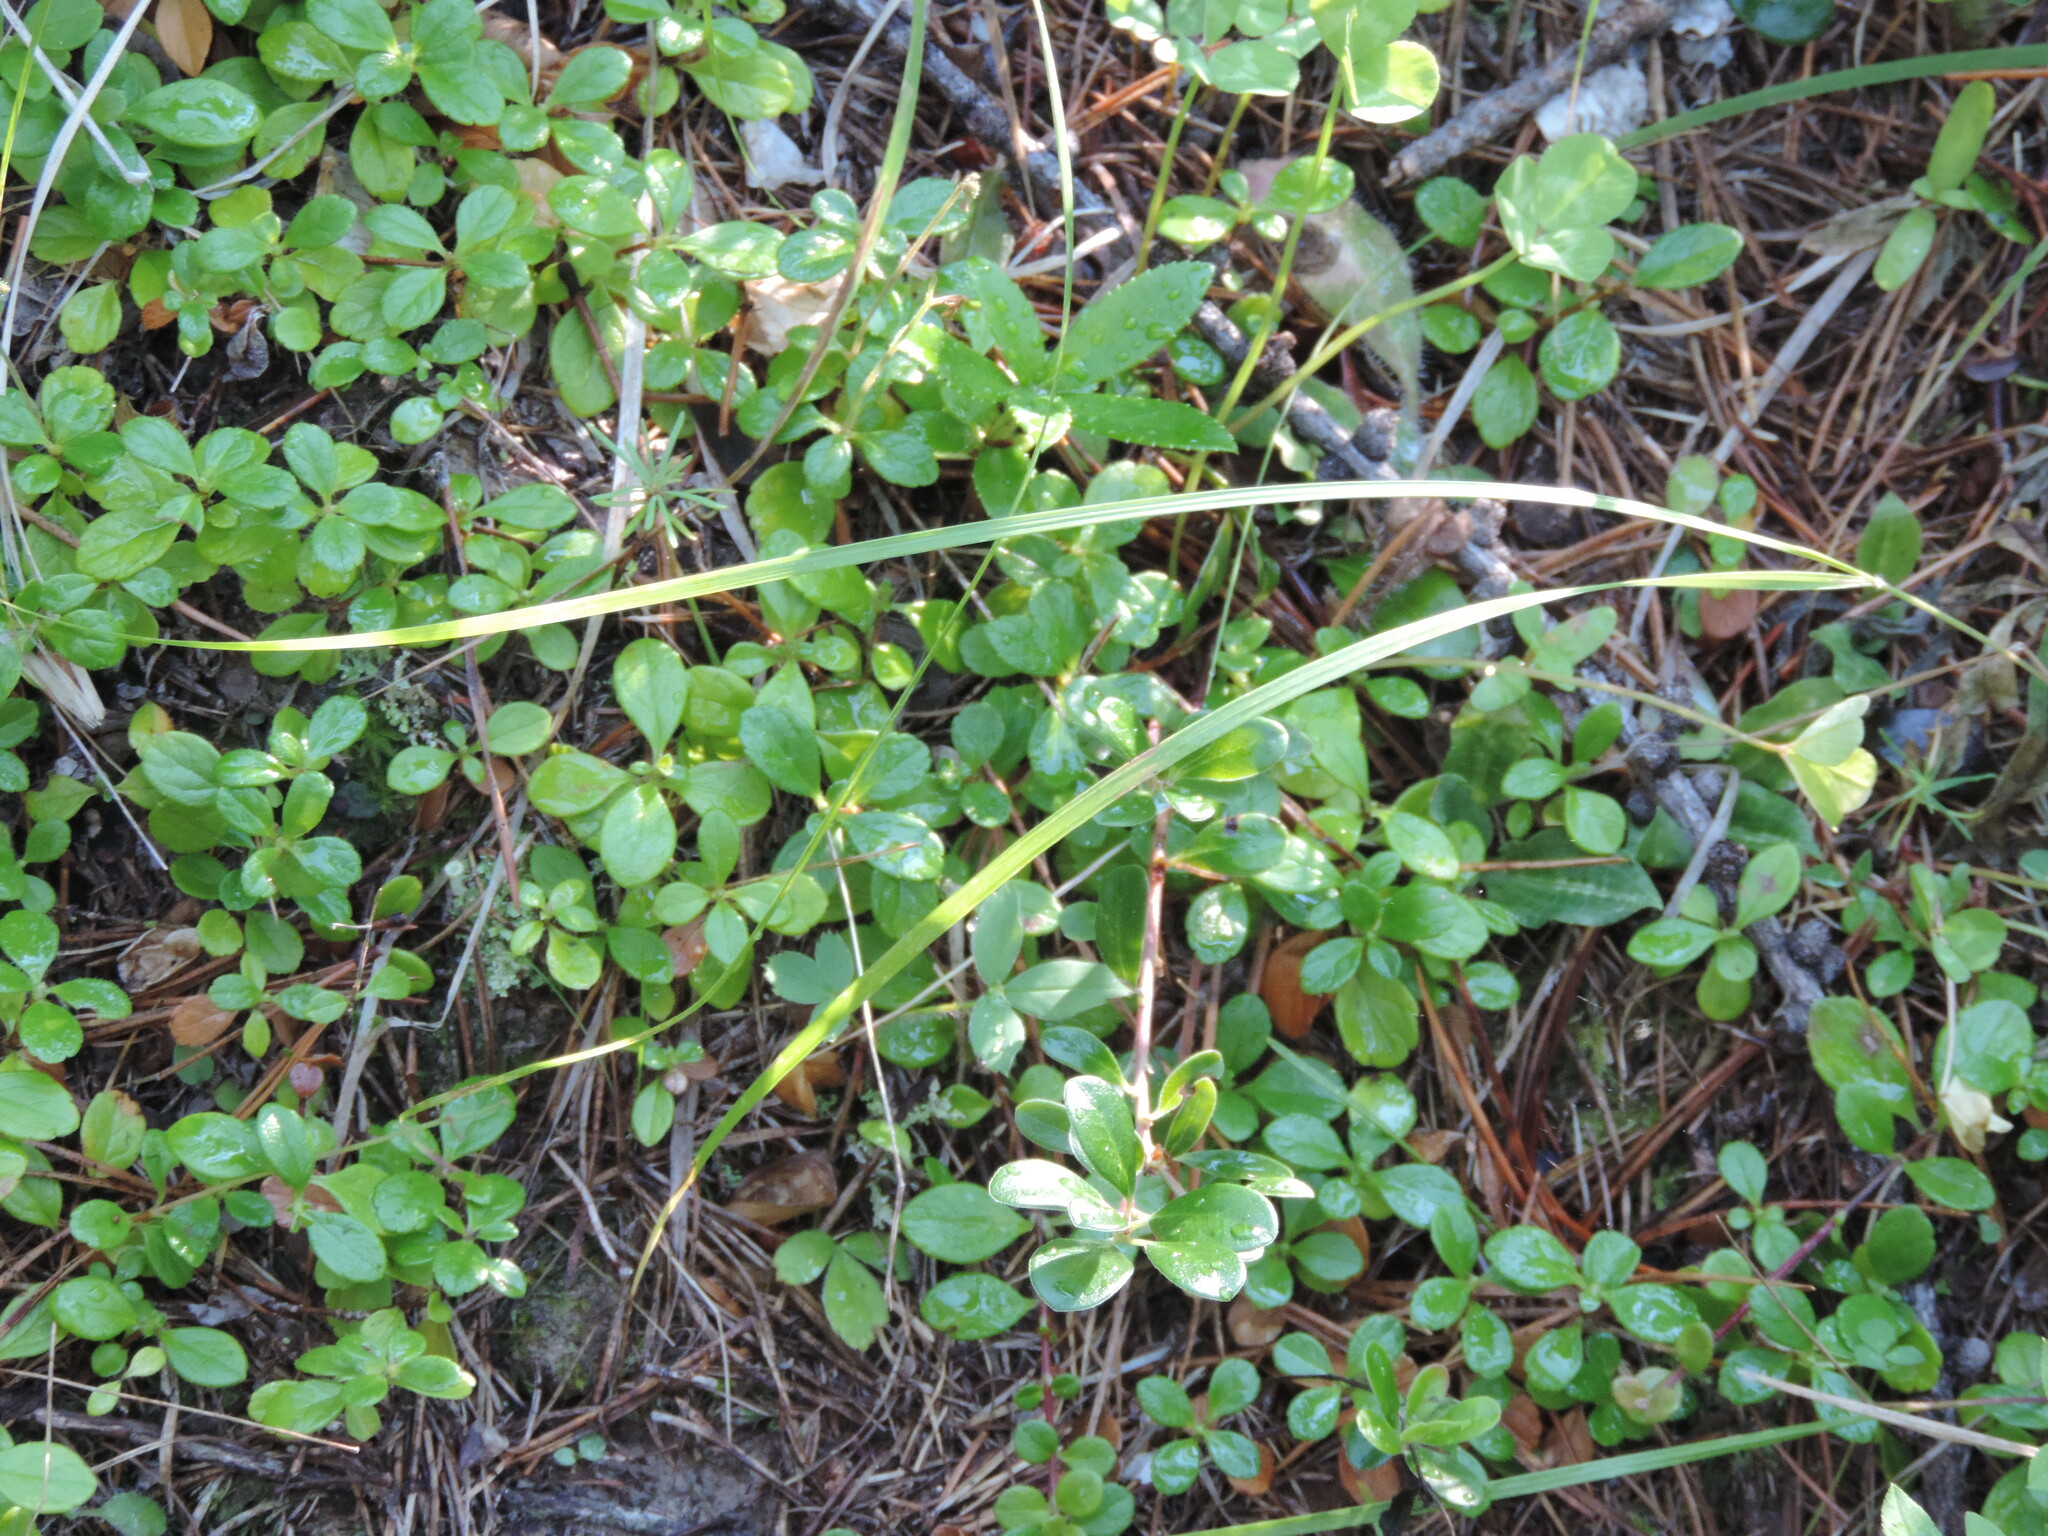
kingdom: Plantae
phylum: Tracheophyta
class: Magnoliopsida
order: Dipsacales
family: Caprifoliaceae
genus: Linnaea
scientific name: Linnaea borealis
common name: Twinflower
